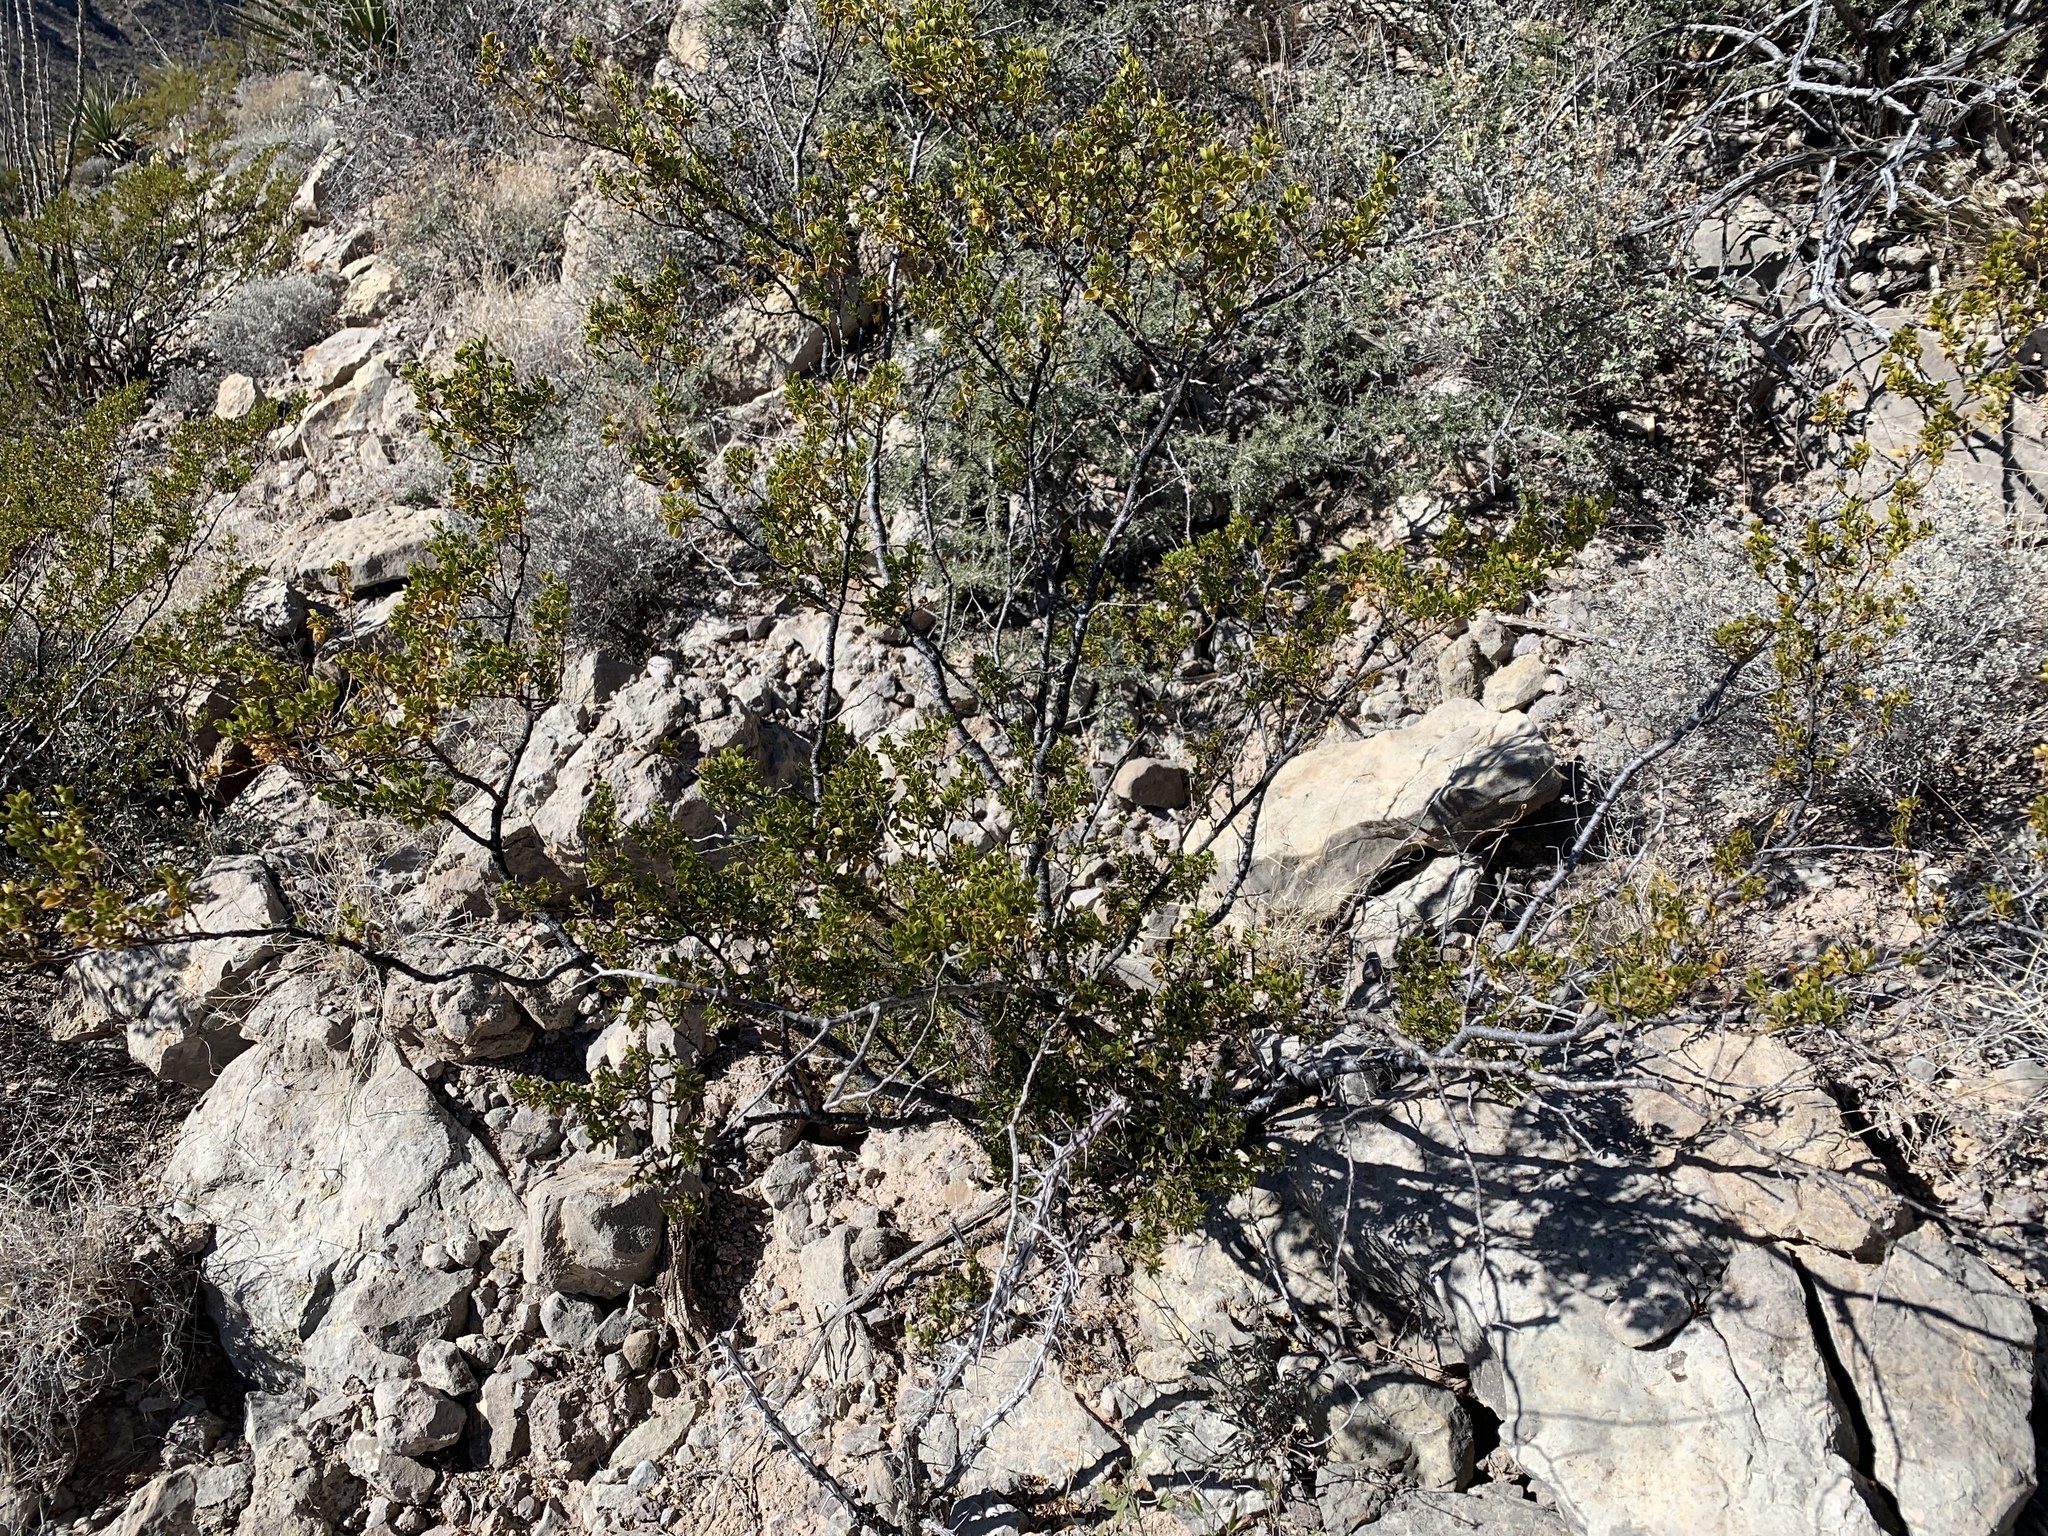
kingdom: Plantae
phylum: Tracheophyta
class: Magnoliopsida
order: Zygophyllales
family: Zygophyllaceae
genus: Larrea
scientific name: Larrea tridentata
